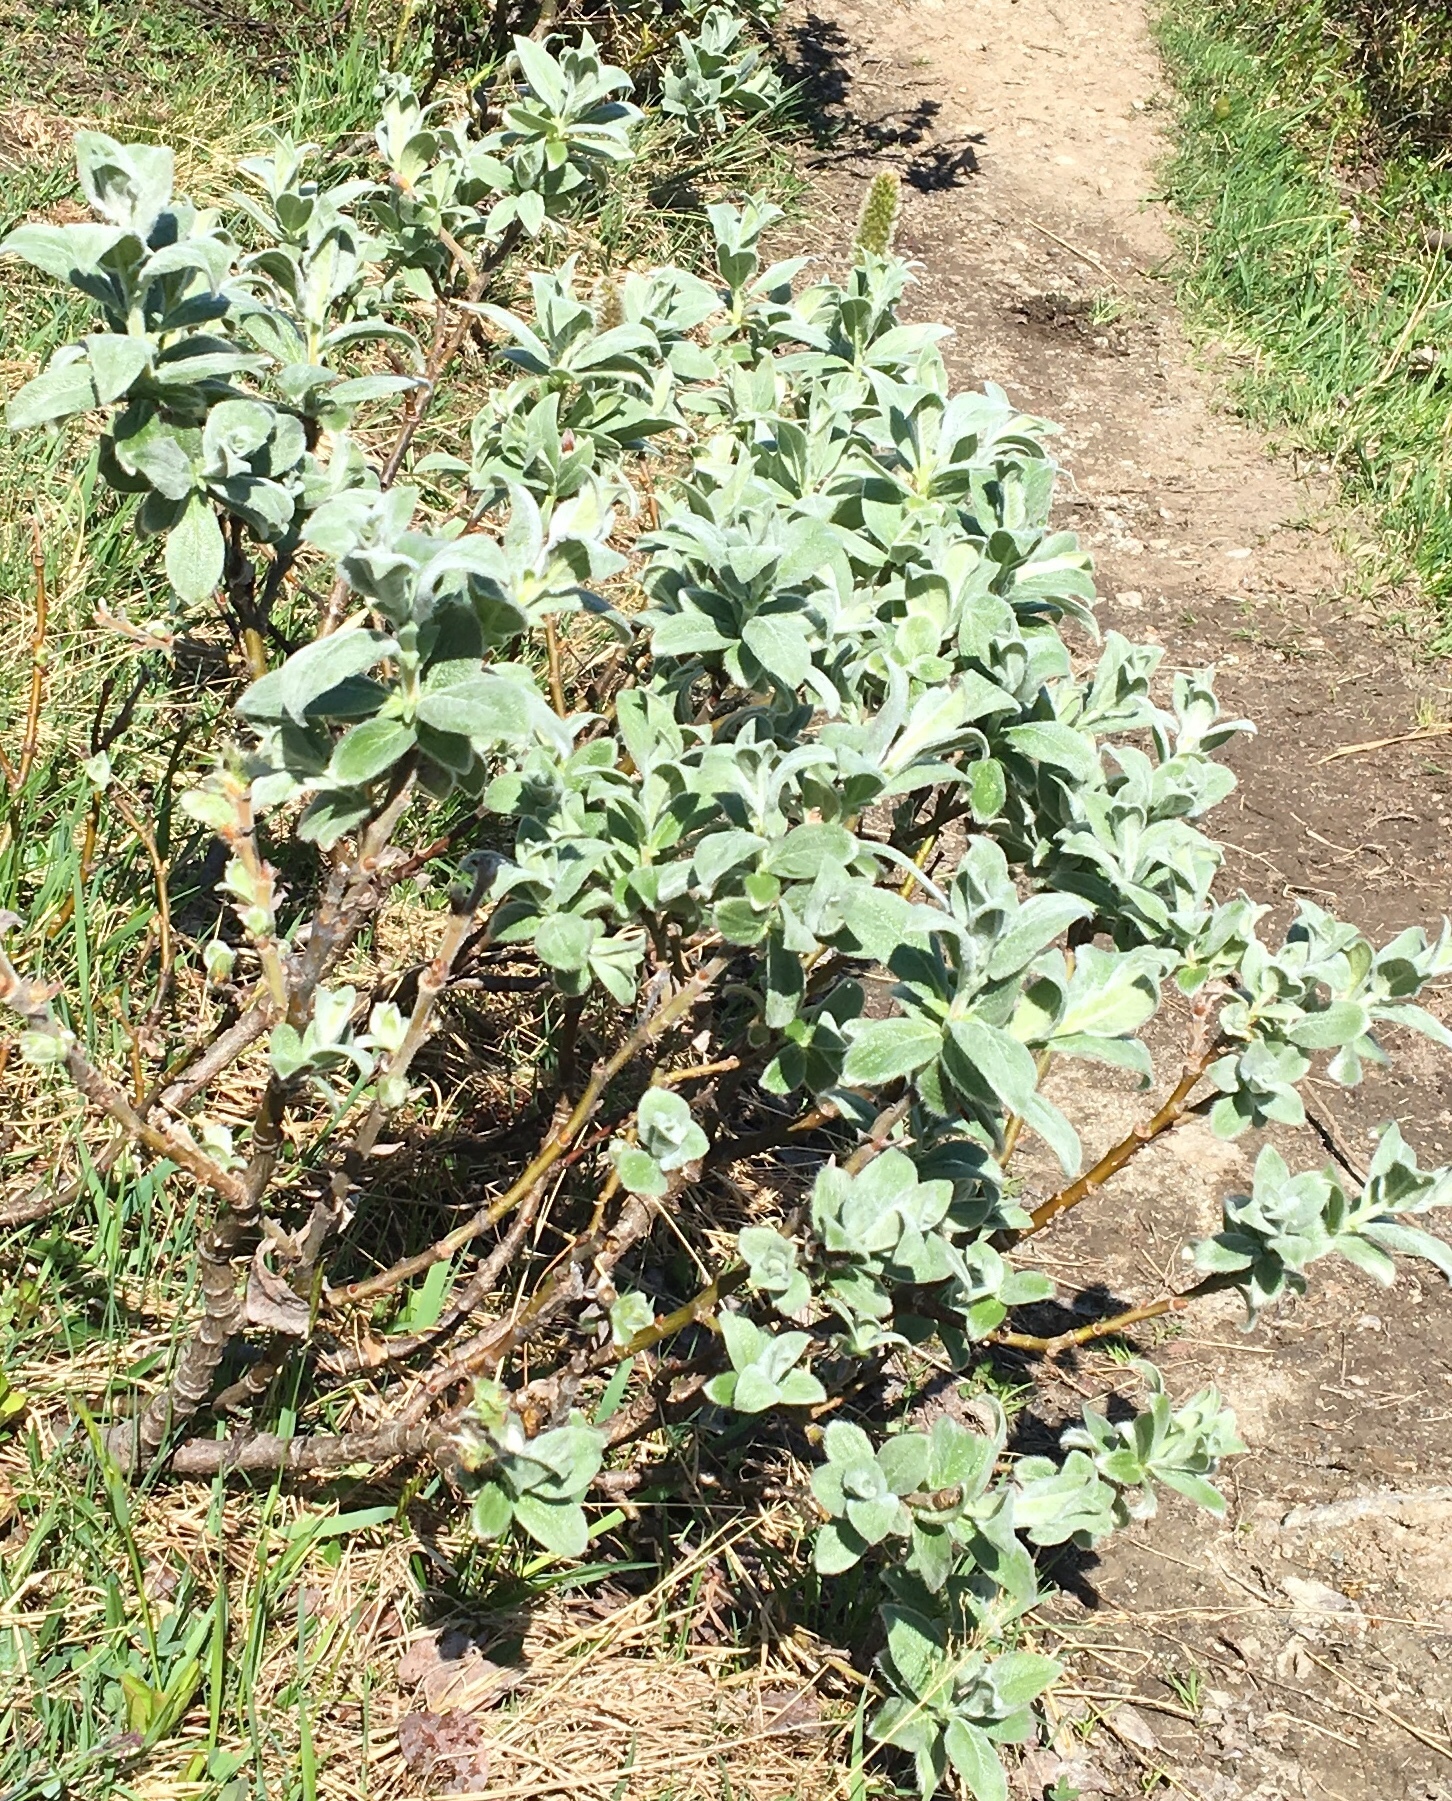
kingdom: Plantae
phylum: Tracheophyta
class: Magnoliopsida
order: Malpighiales
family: Salicaceae
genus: Salix
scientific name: Salix lanata
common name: Woolly willow
